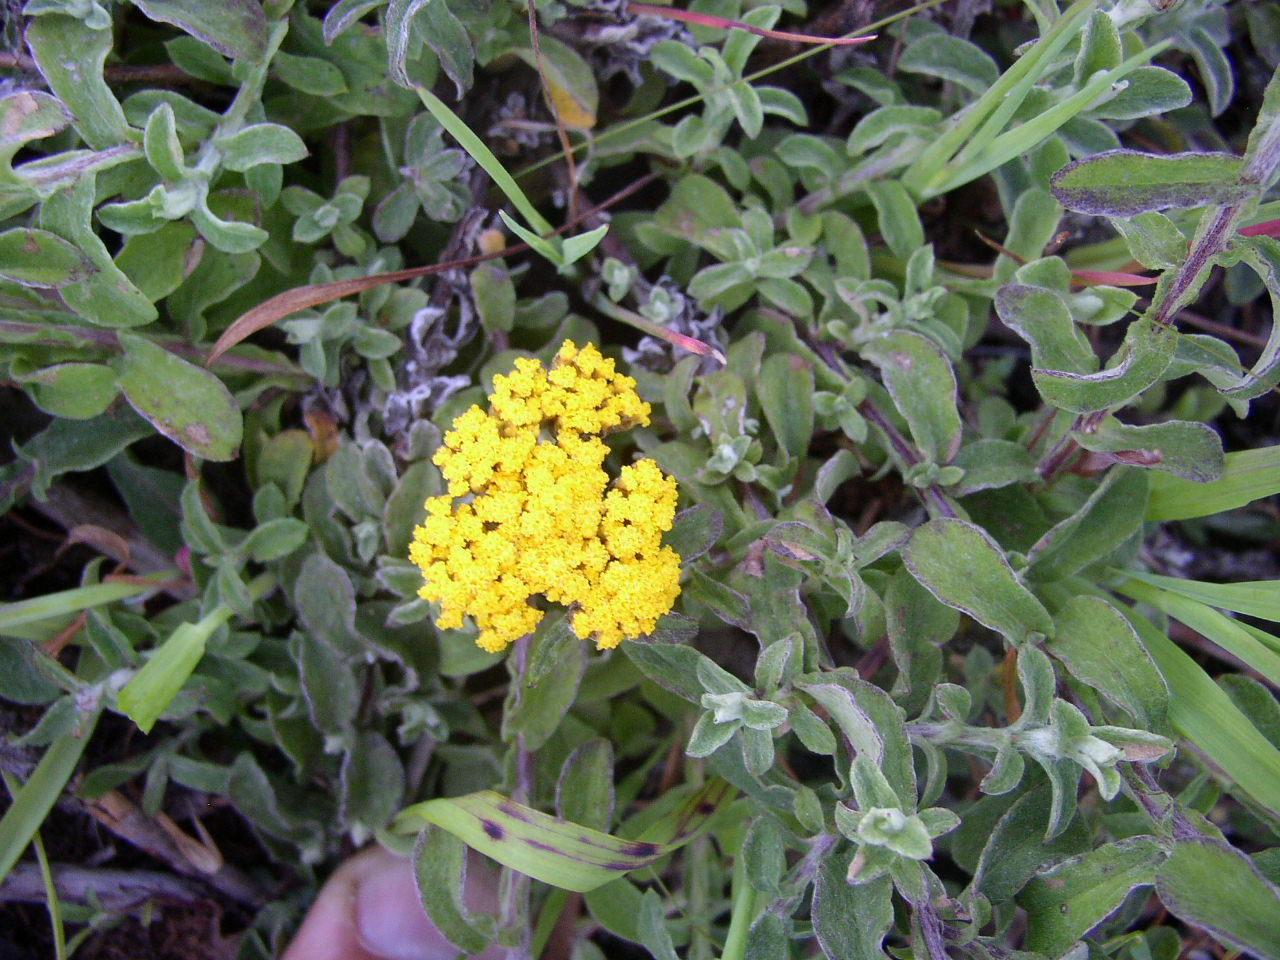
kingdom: Plantae
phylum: Tracheophyta
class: Magnoliopsida
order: Asterales
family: Asteraceae
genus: Helichrysum
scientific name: Helichrysum odoratissimum
